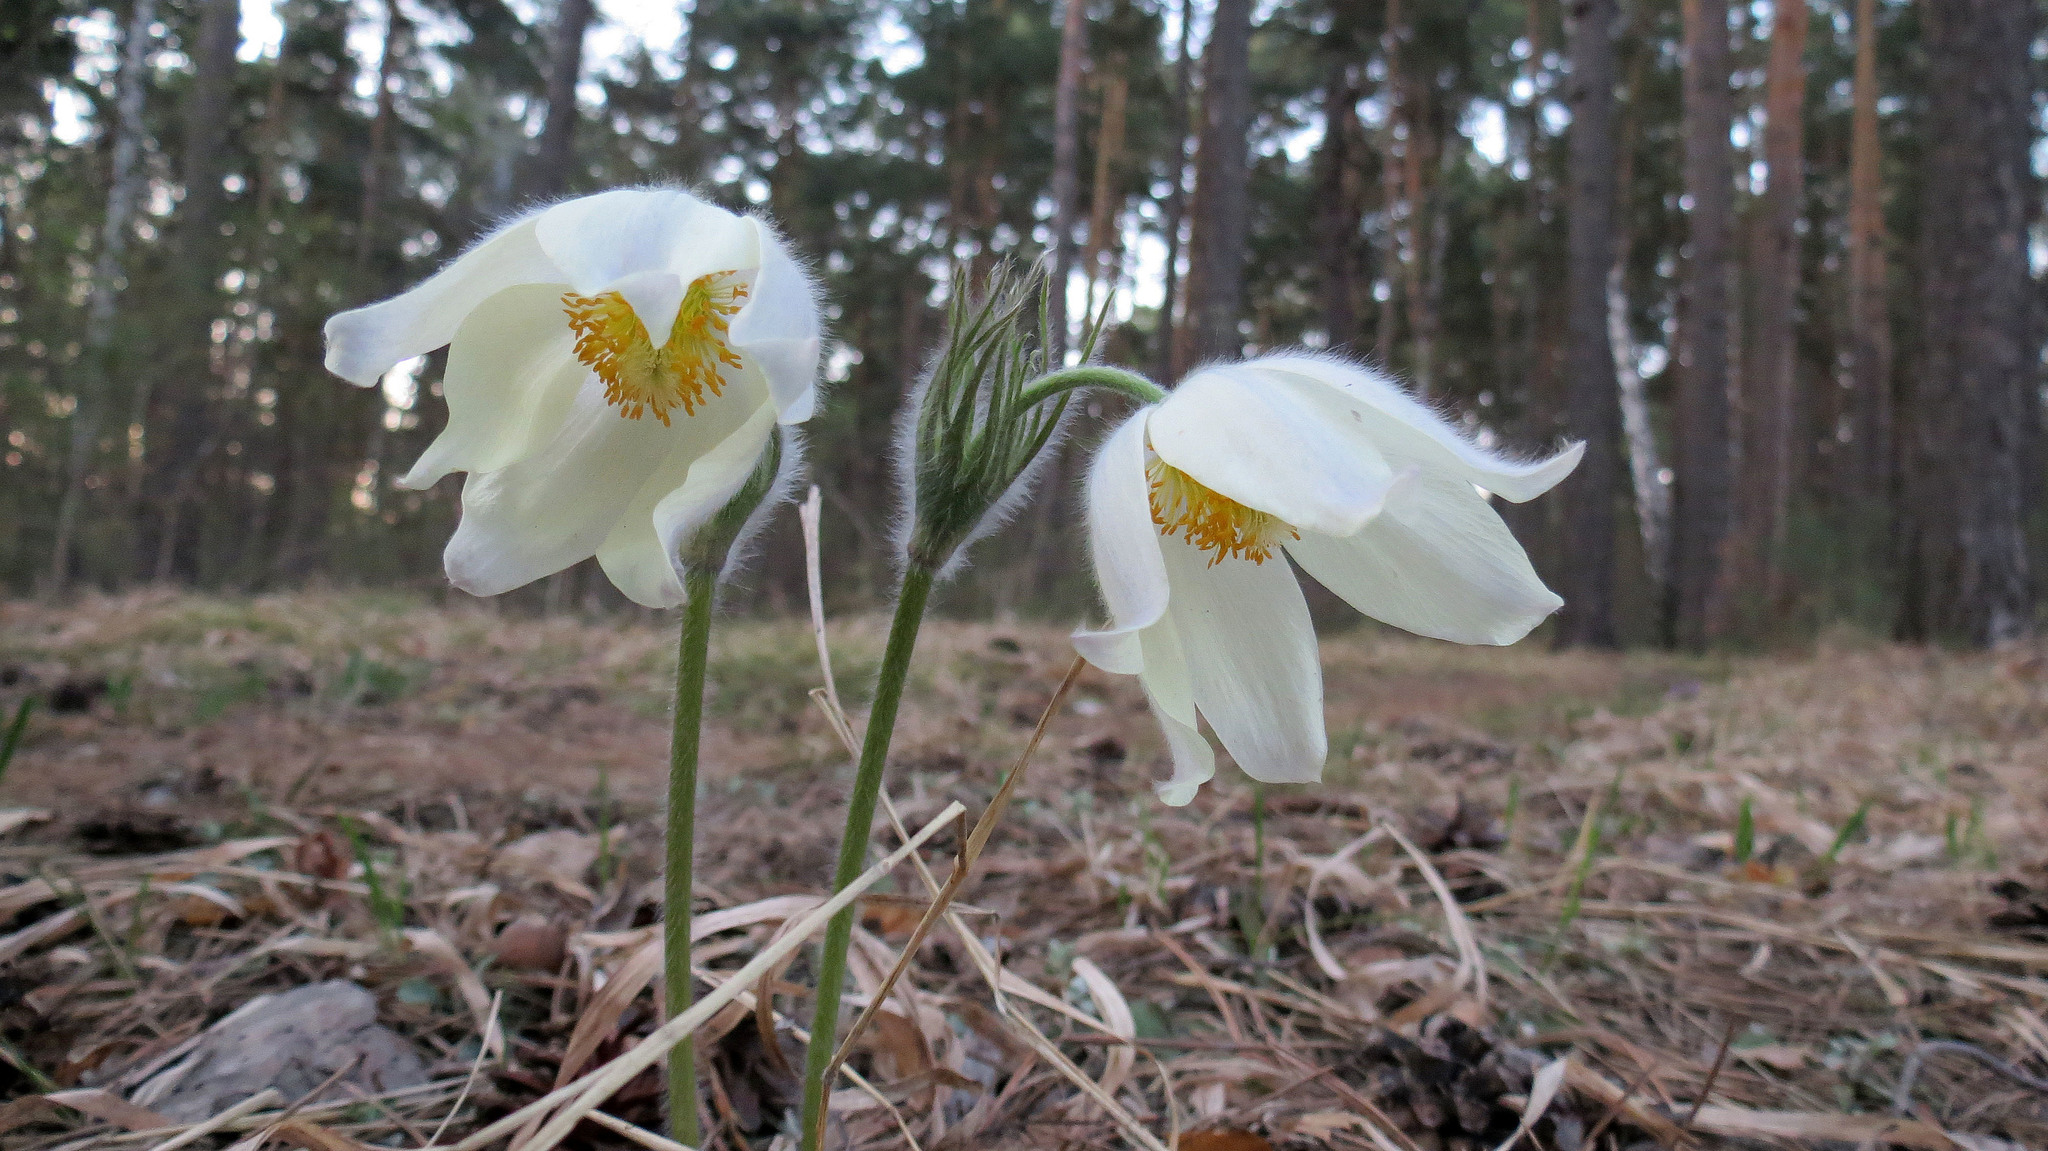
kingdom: Plantae
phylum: Tracheophyta
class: Magnoliopsida
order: Ranunculales
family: Ranunculaceae
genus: Pulsatilla
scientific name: Pulsatilla patens
